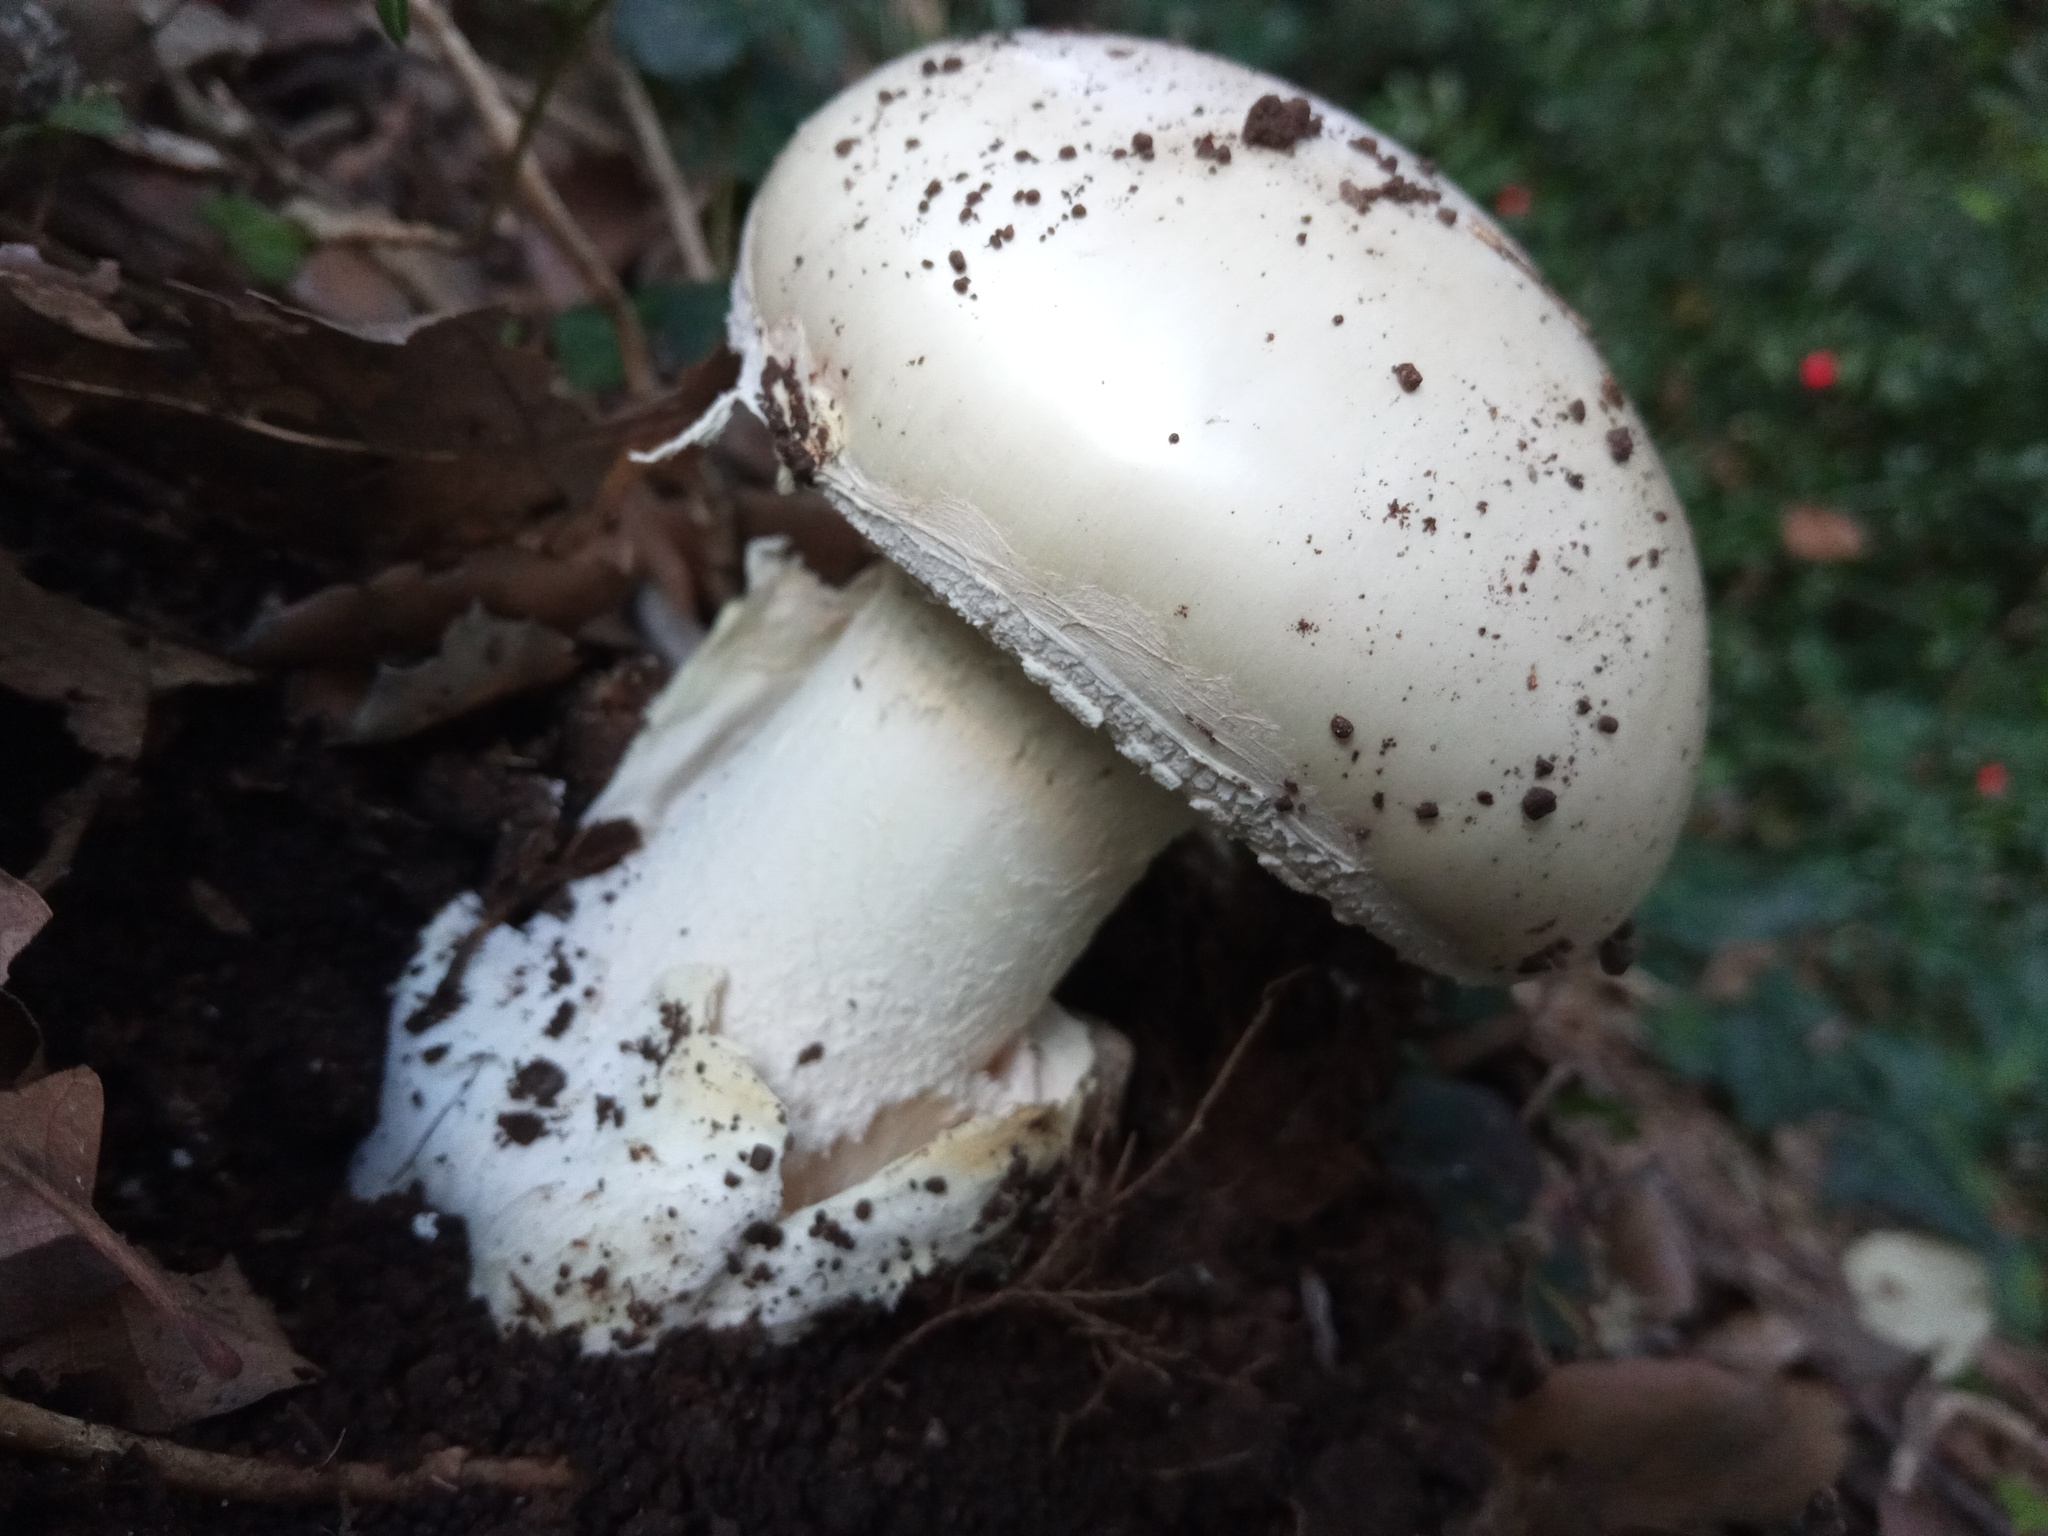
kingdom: Fungi
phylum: Basidiomycota
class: Agaricomycetes
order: Agaricales
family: Amanitaceae
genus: Amanita
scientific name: Amanita ovoidea
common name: Bearded amanita
